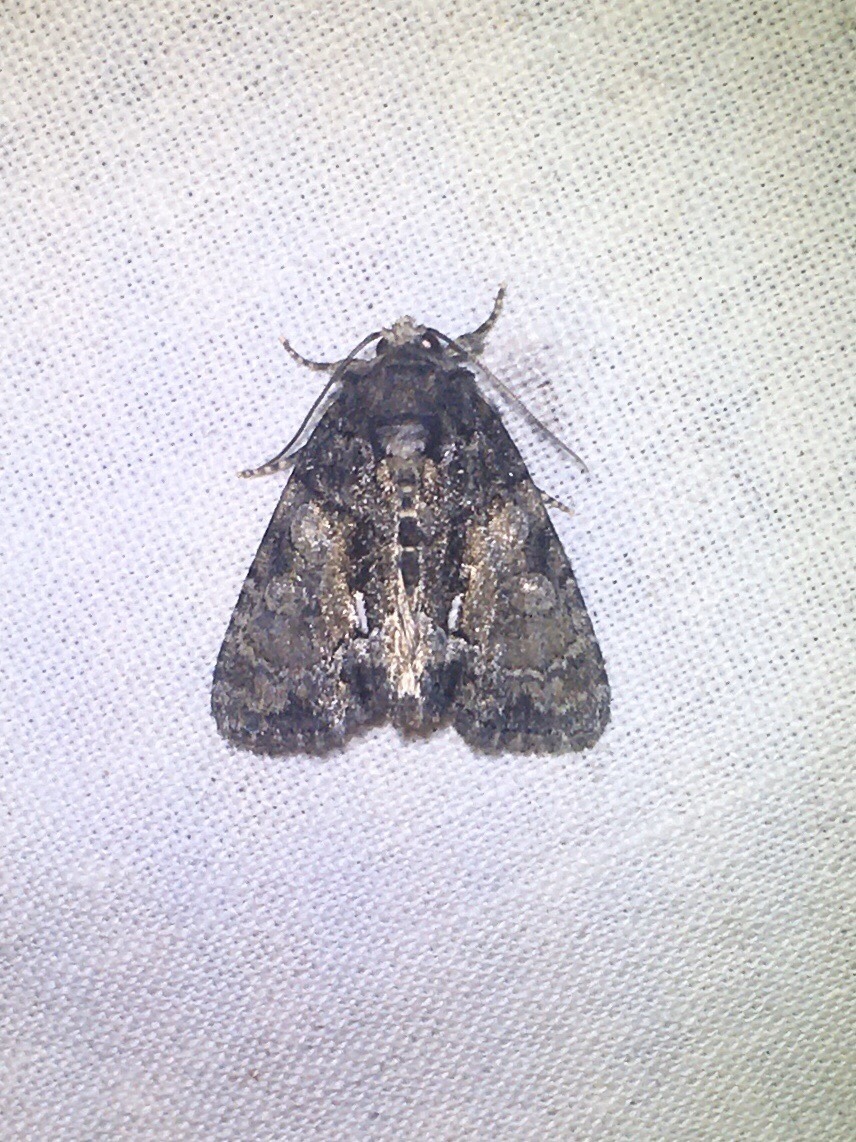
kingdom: Animalia
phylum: Arthropoda
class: Insecta
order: Lepidoptera
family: Noctuidae
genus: Chytonix
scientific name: Chytonix palliatricula
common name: Cloaked marvel
